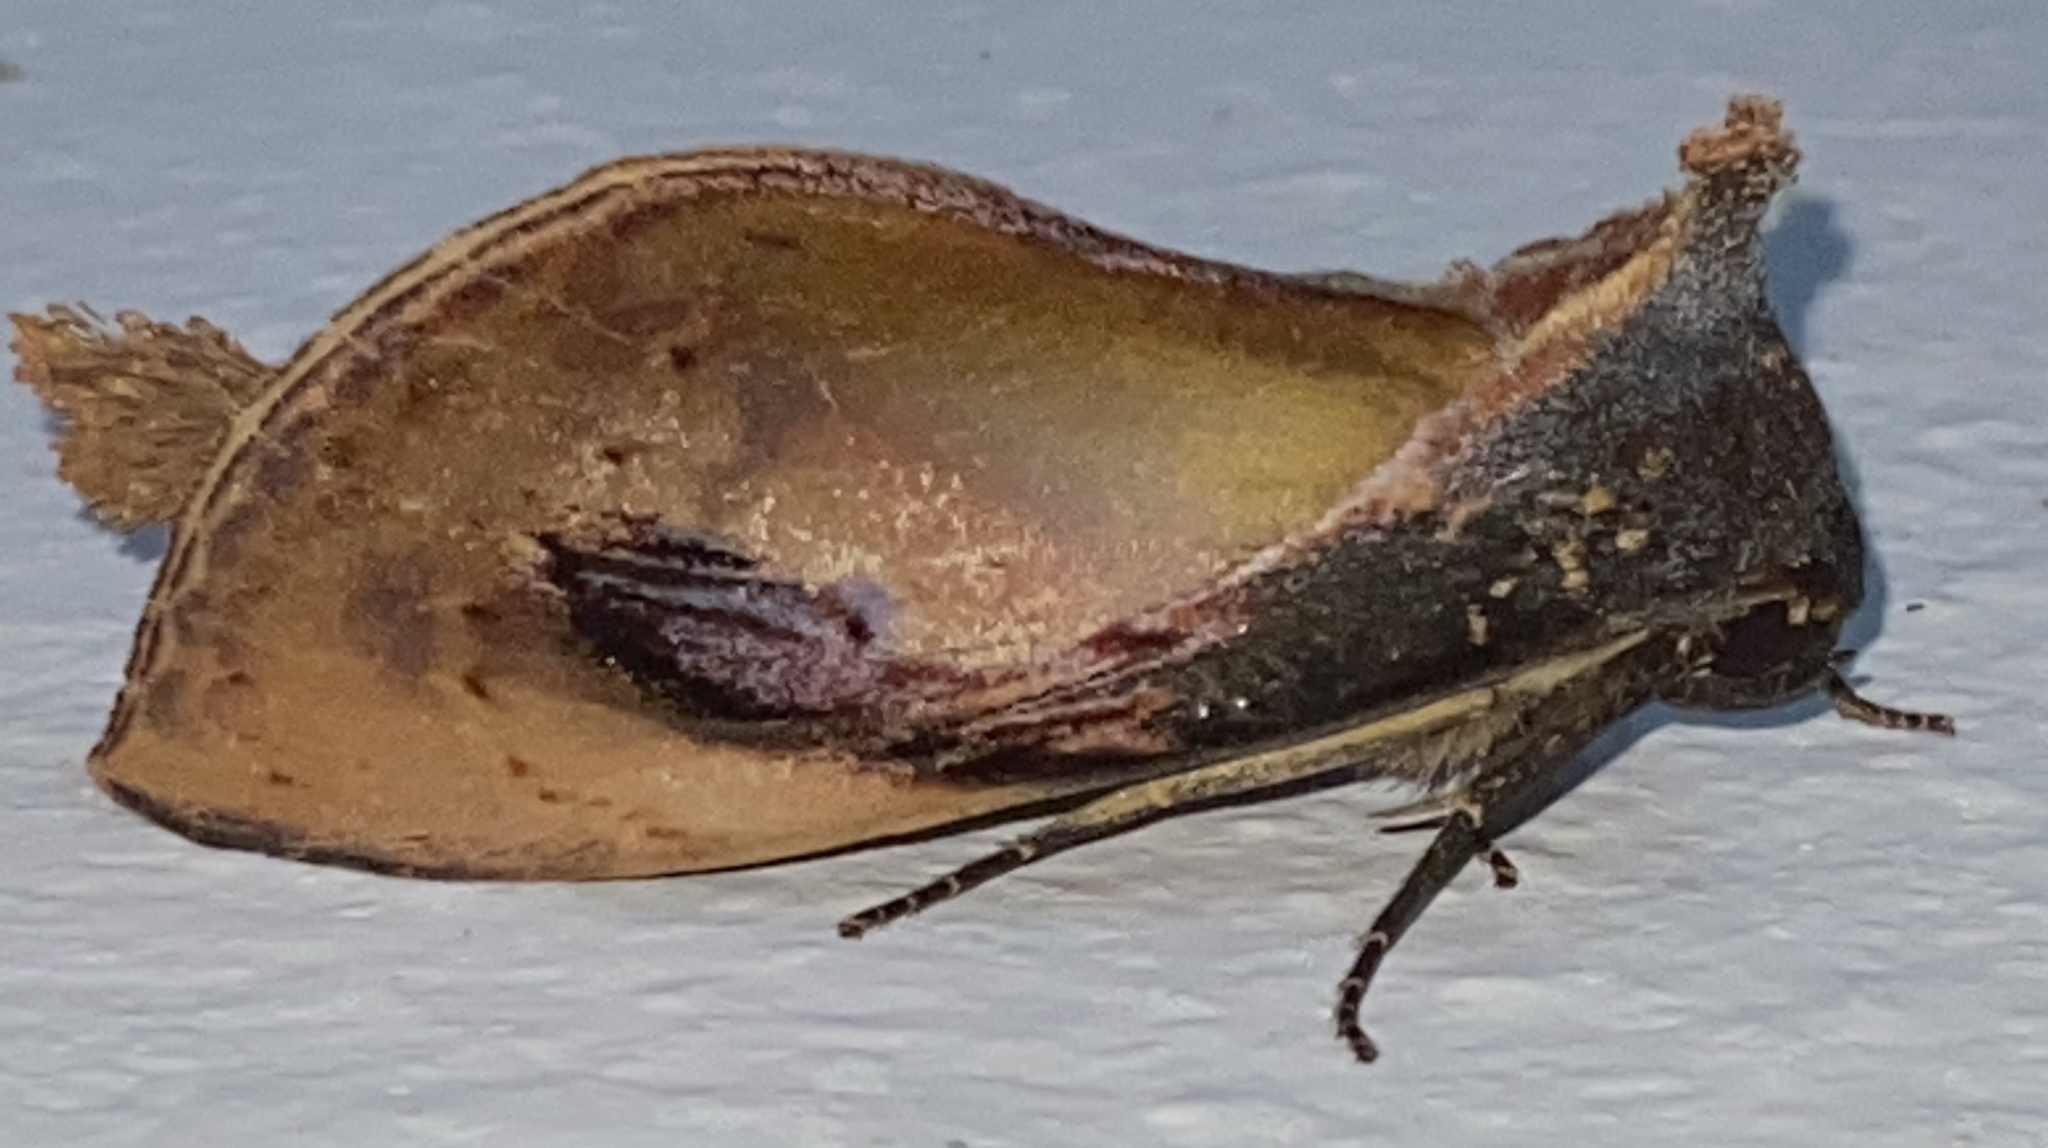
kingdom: Animalia
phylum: Arthropoda
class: Insecta
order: Lepidoptera
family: Notodontidae
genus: Crinodes
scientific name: Crinodes bellatrix
